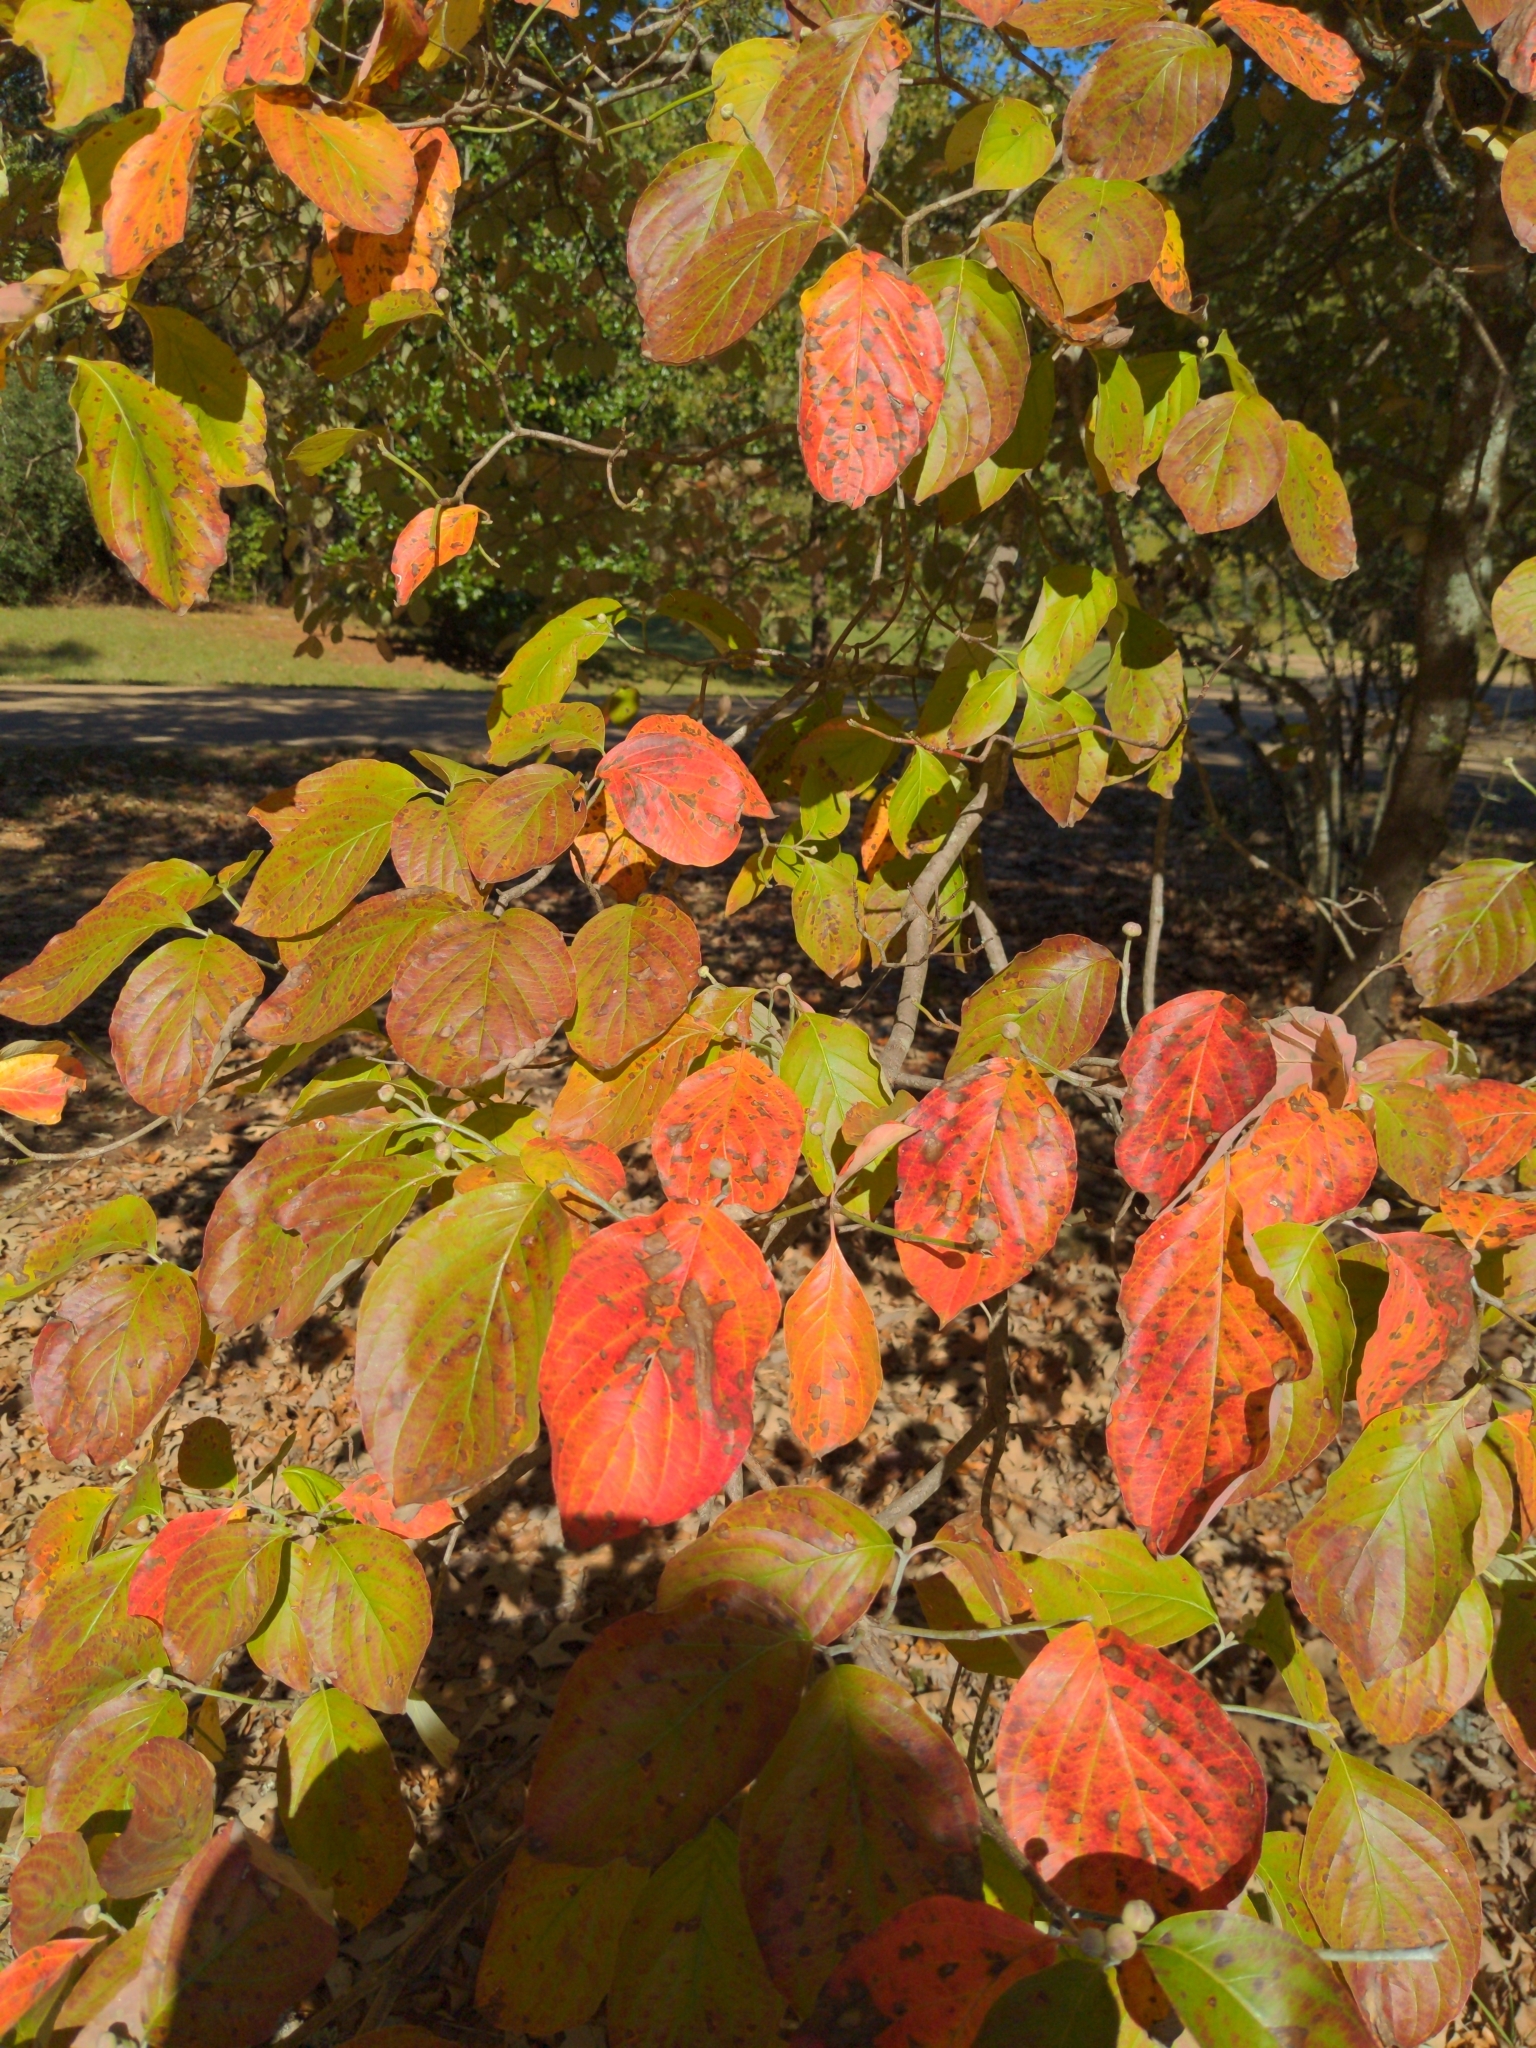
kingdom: Plantae
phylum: Tracheophyta
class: Magnoliopsida
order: Cornales
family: Cornaceae
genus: Cornus
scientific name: Cornus florida
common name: Flowering dogwood
